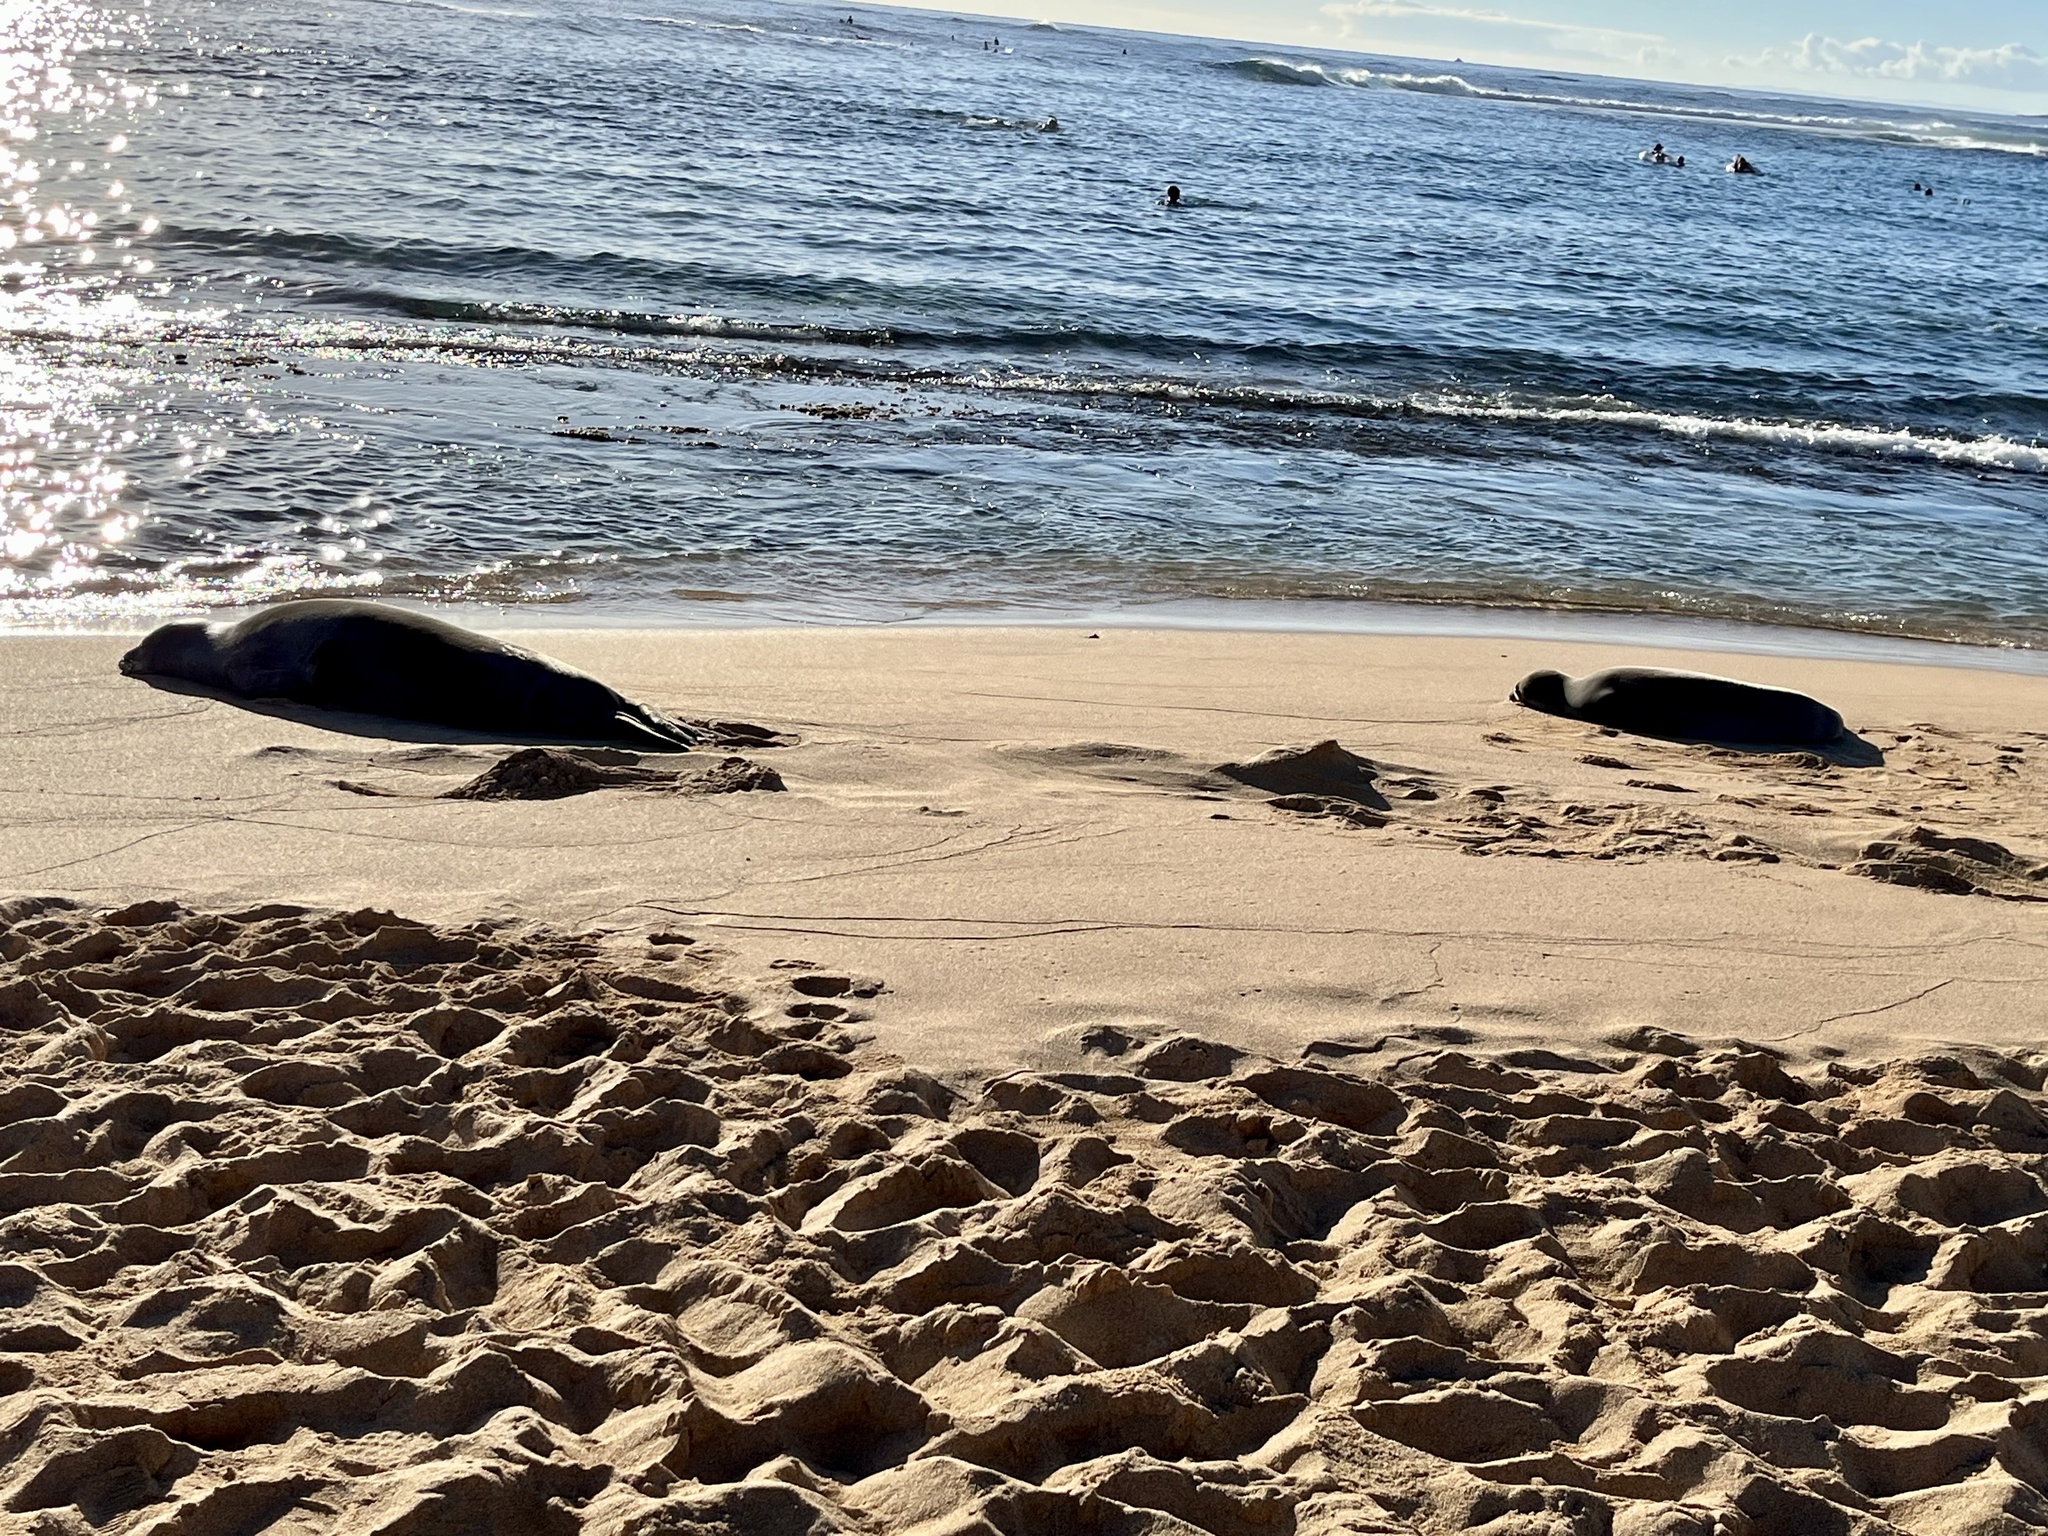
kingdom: Animalia
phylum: Chordata
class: Mammalia
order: Carnivora
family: Phocidae
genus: Neomonachus
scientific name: Neomonachus schauinslandi
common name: Hawaiian monk seal
